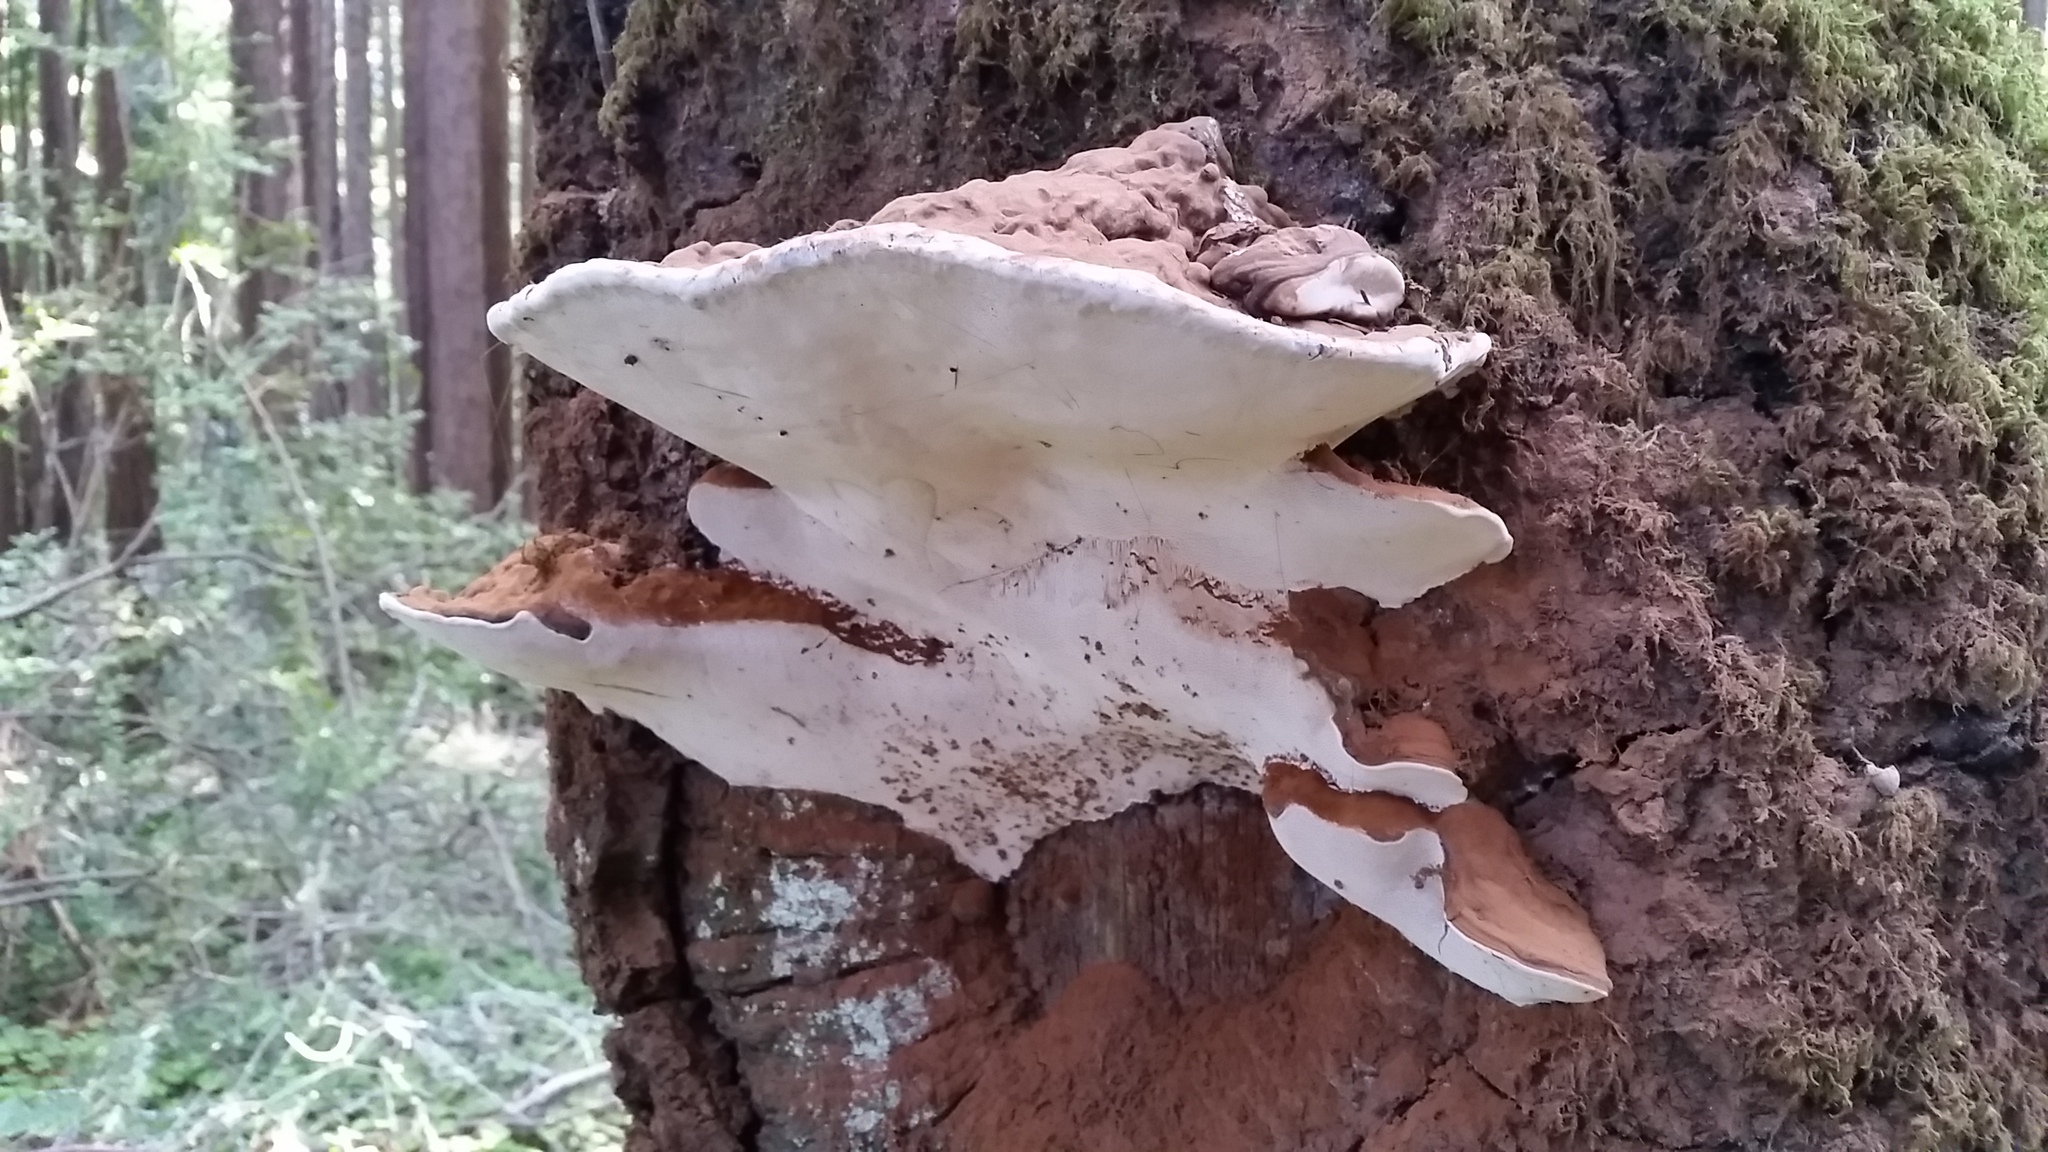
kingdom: Fungi
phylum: Basidiomycota
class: Agaricomycetes
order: Polyporales
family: Polyporaceae
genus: Ganoderma
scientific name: Ganoderma brownii
